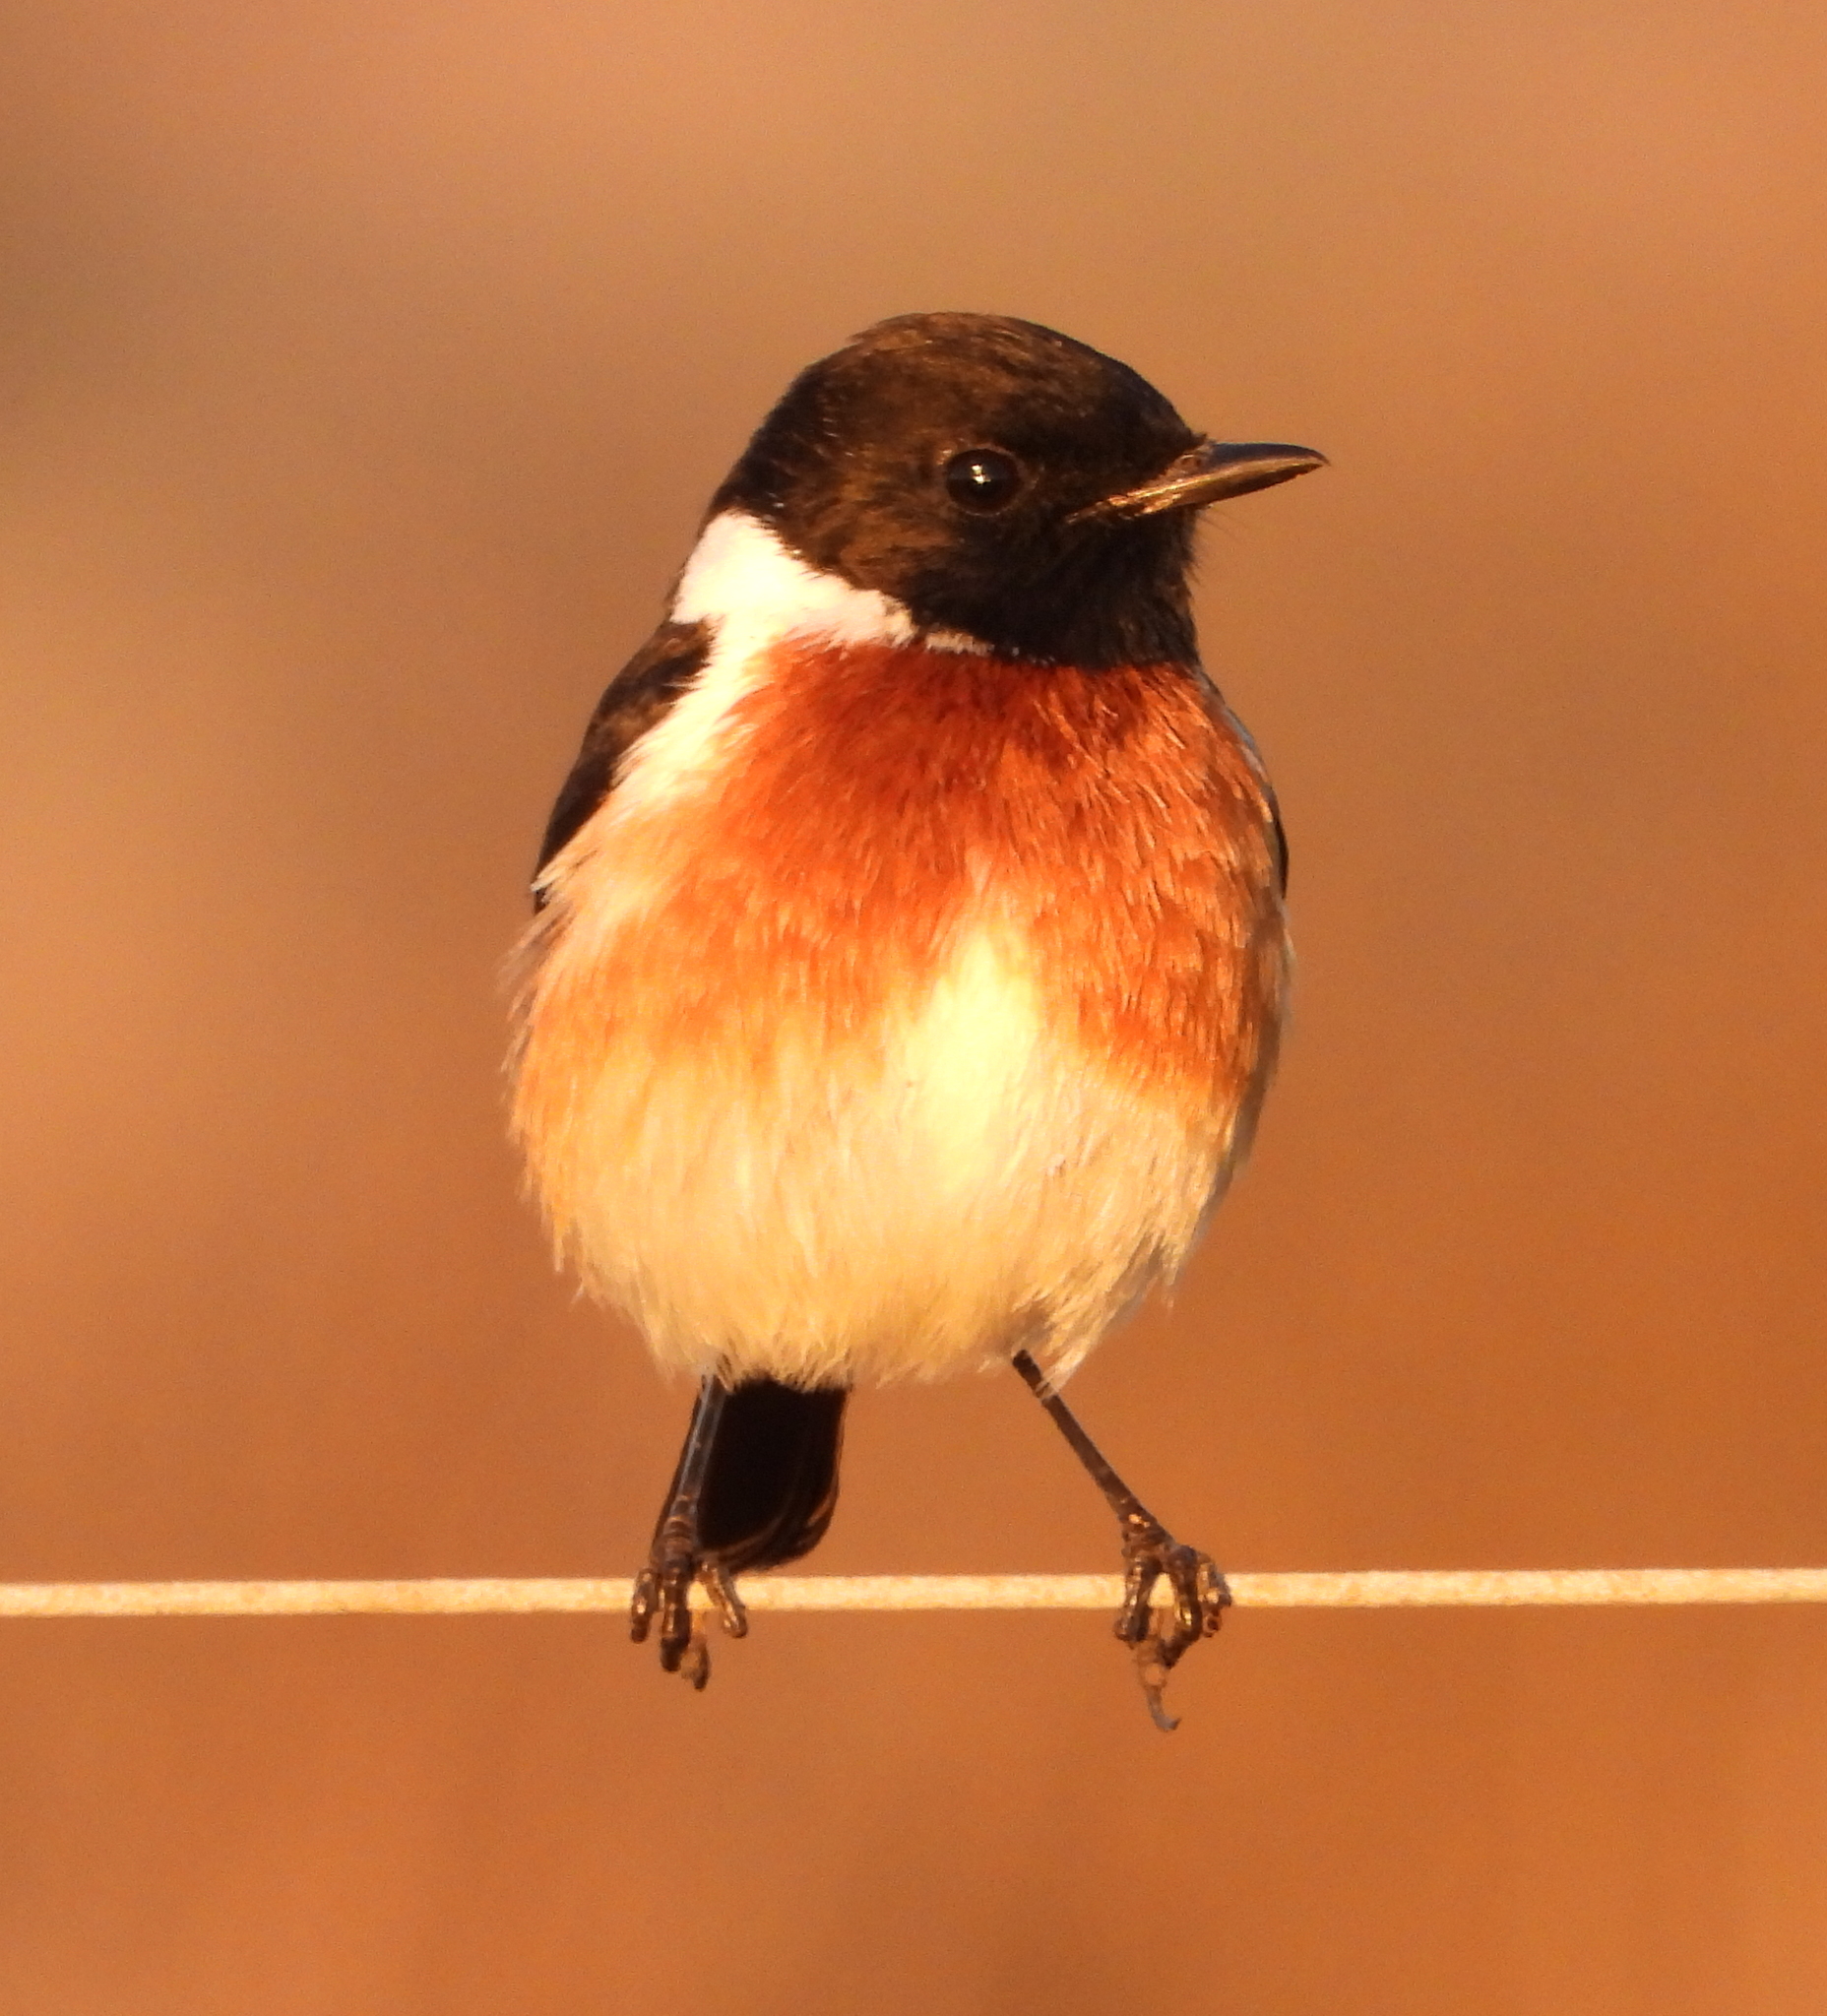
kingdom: Animalia
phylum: Chordata
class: Aves
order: Passeriformes
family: Muscicapidae
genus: Saxicola
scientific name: Saxicola torquatus
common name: African stonechat
